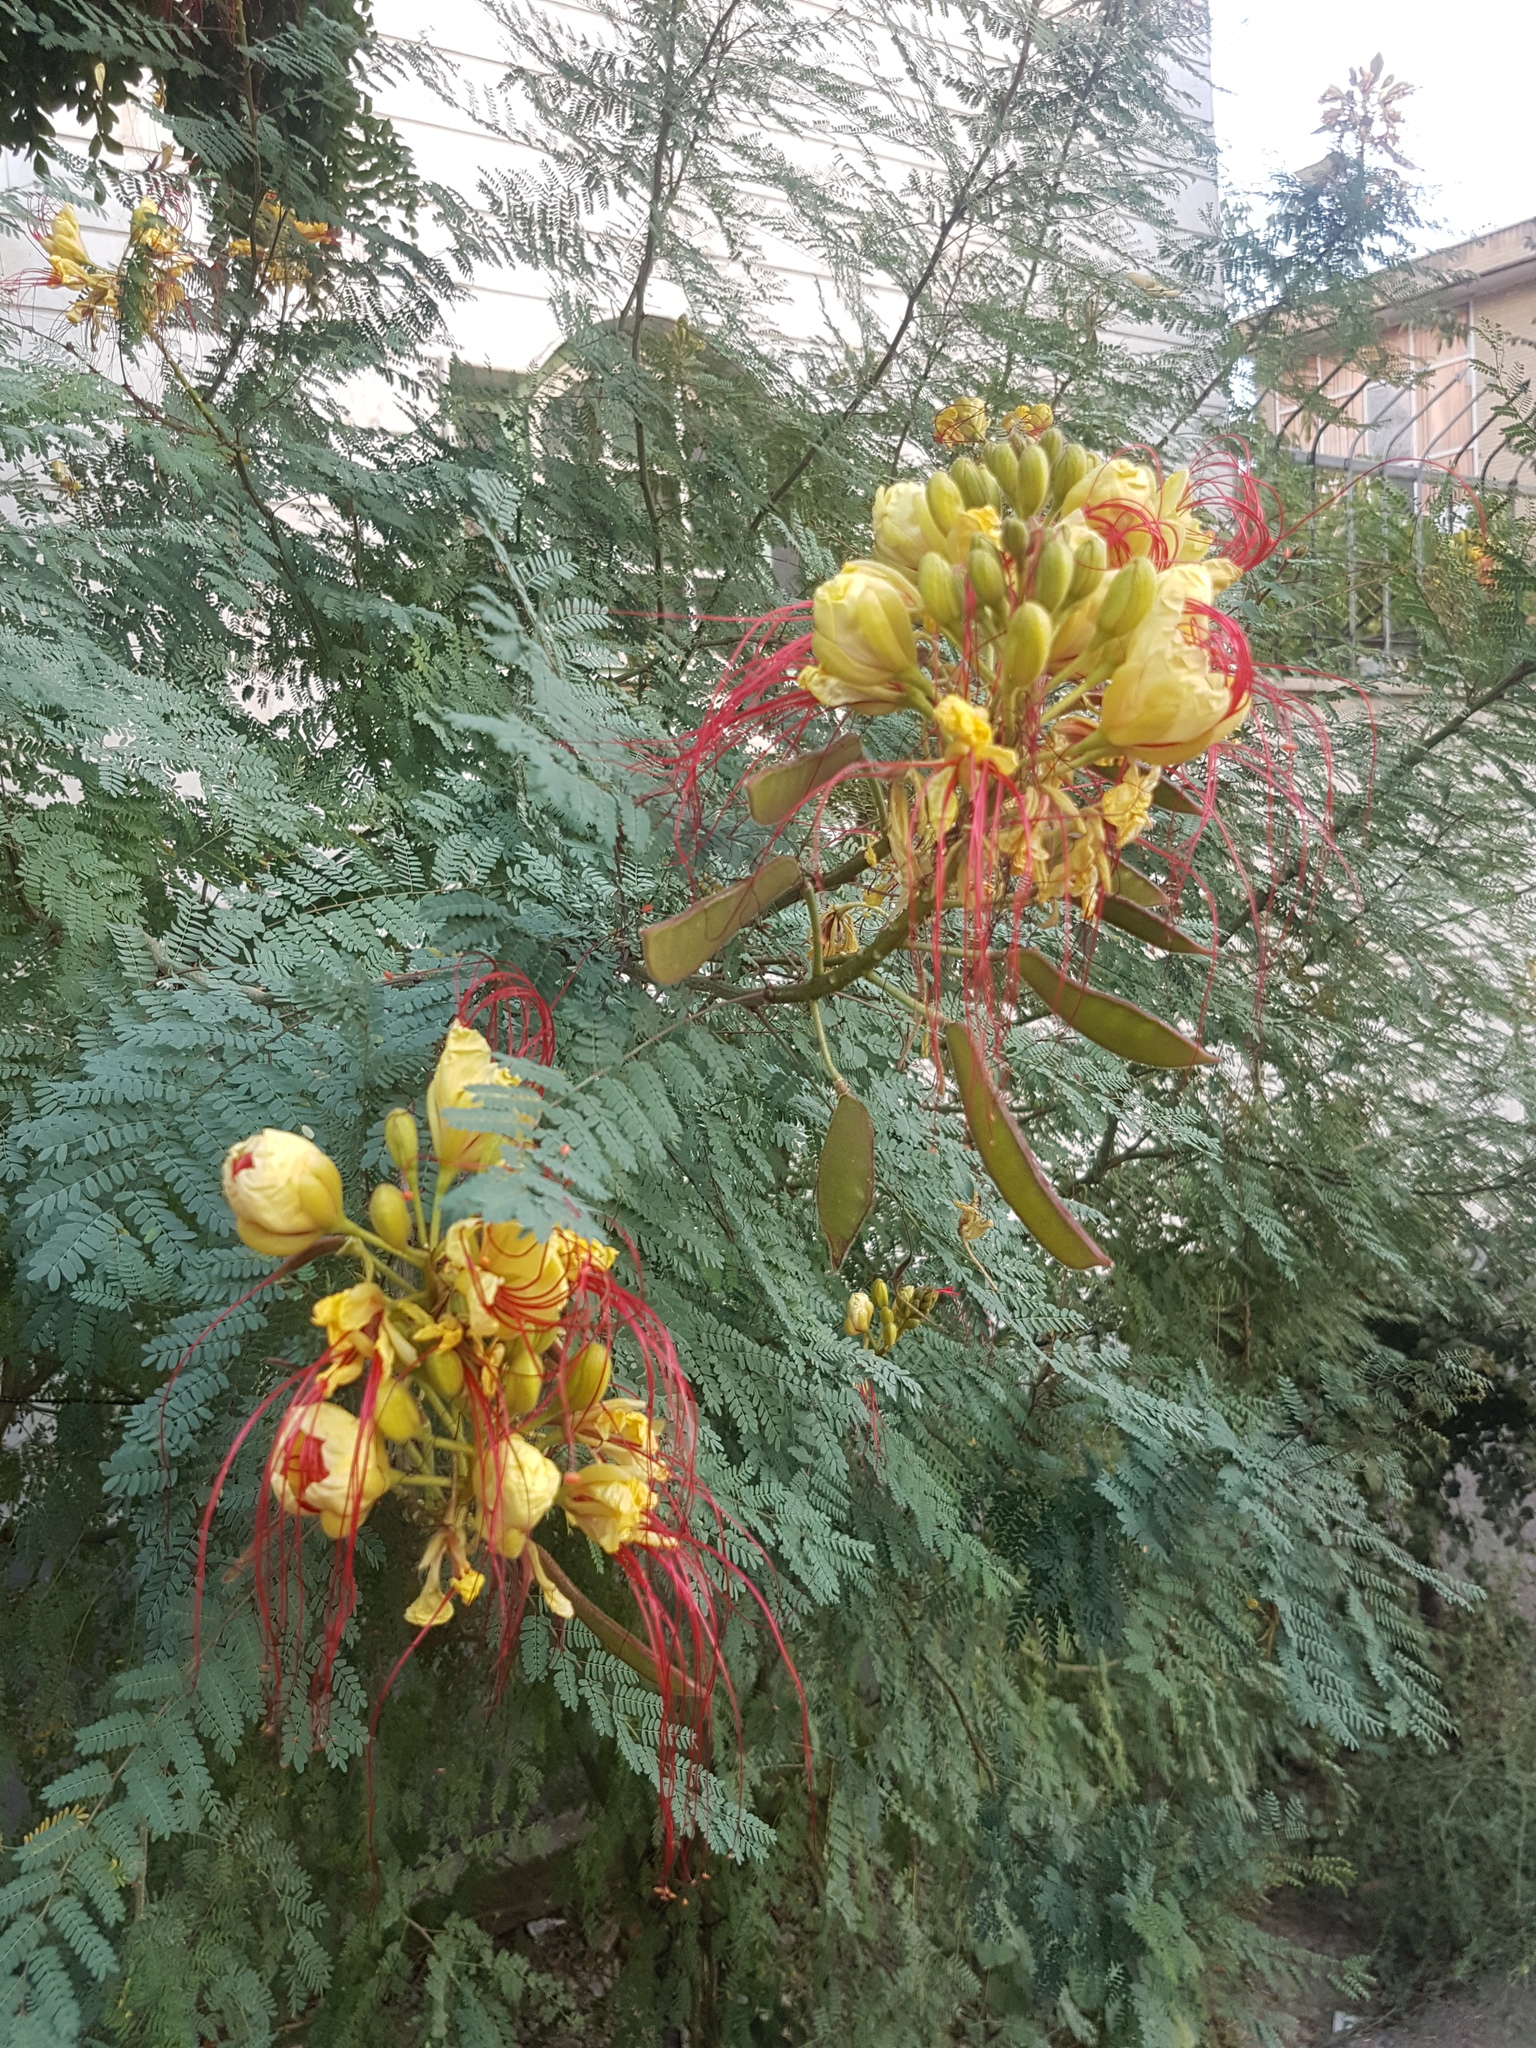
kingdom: Plantae
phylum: Tracheophyta
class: Magnoliopsida
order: Fabales
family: Fabaceae
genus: Erythrostemon
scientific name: Erythrostemon gilliesii
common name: Bird-of-paradise shrub
